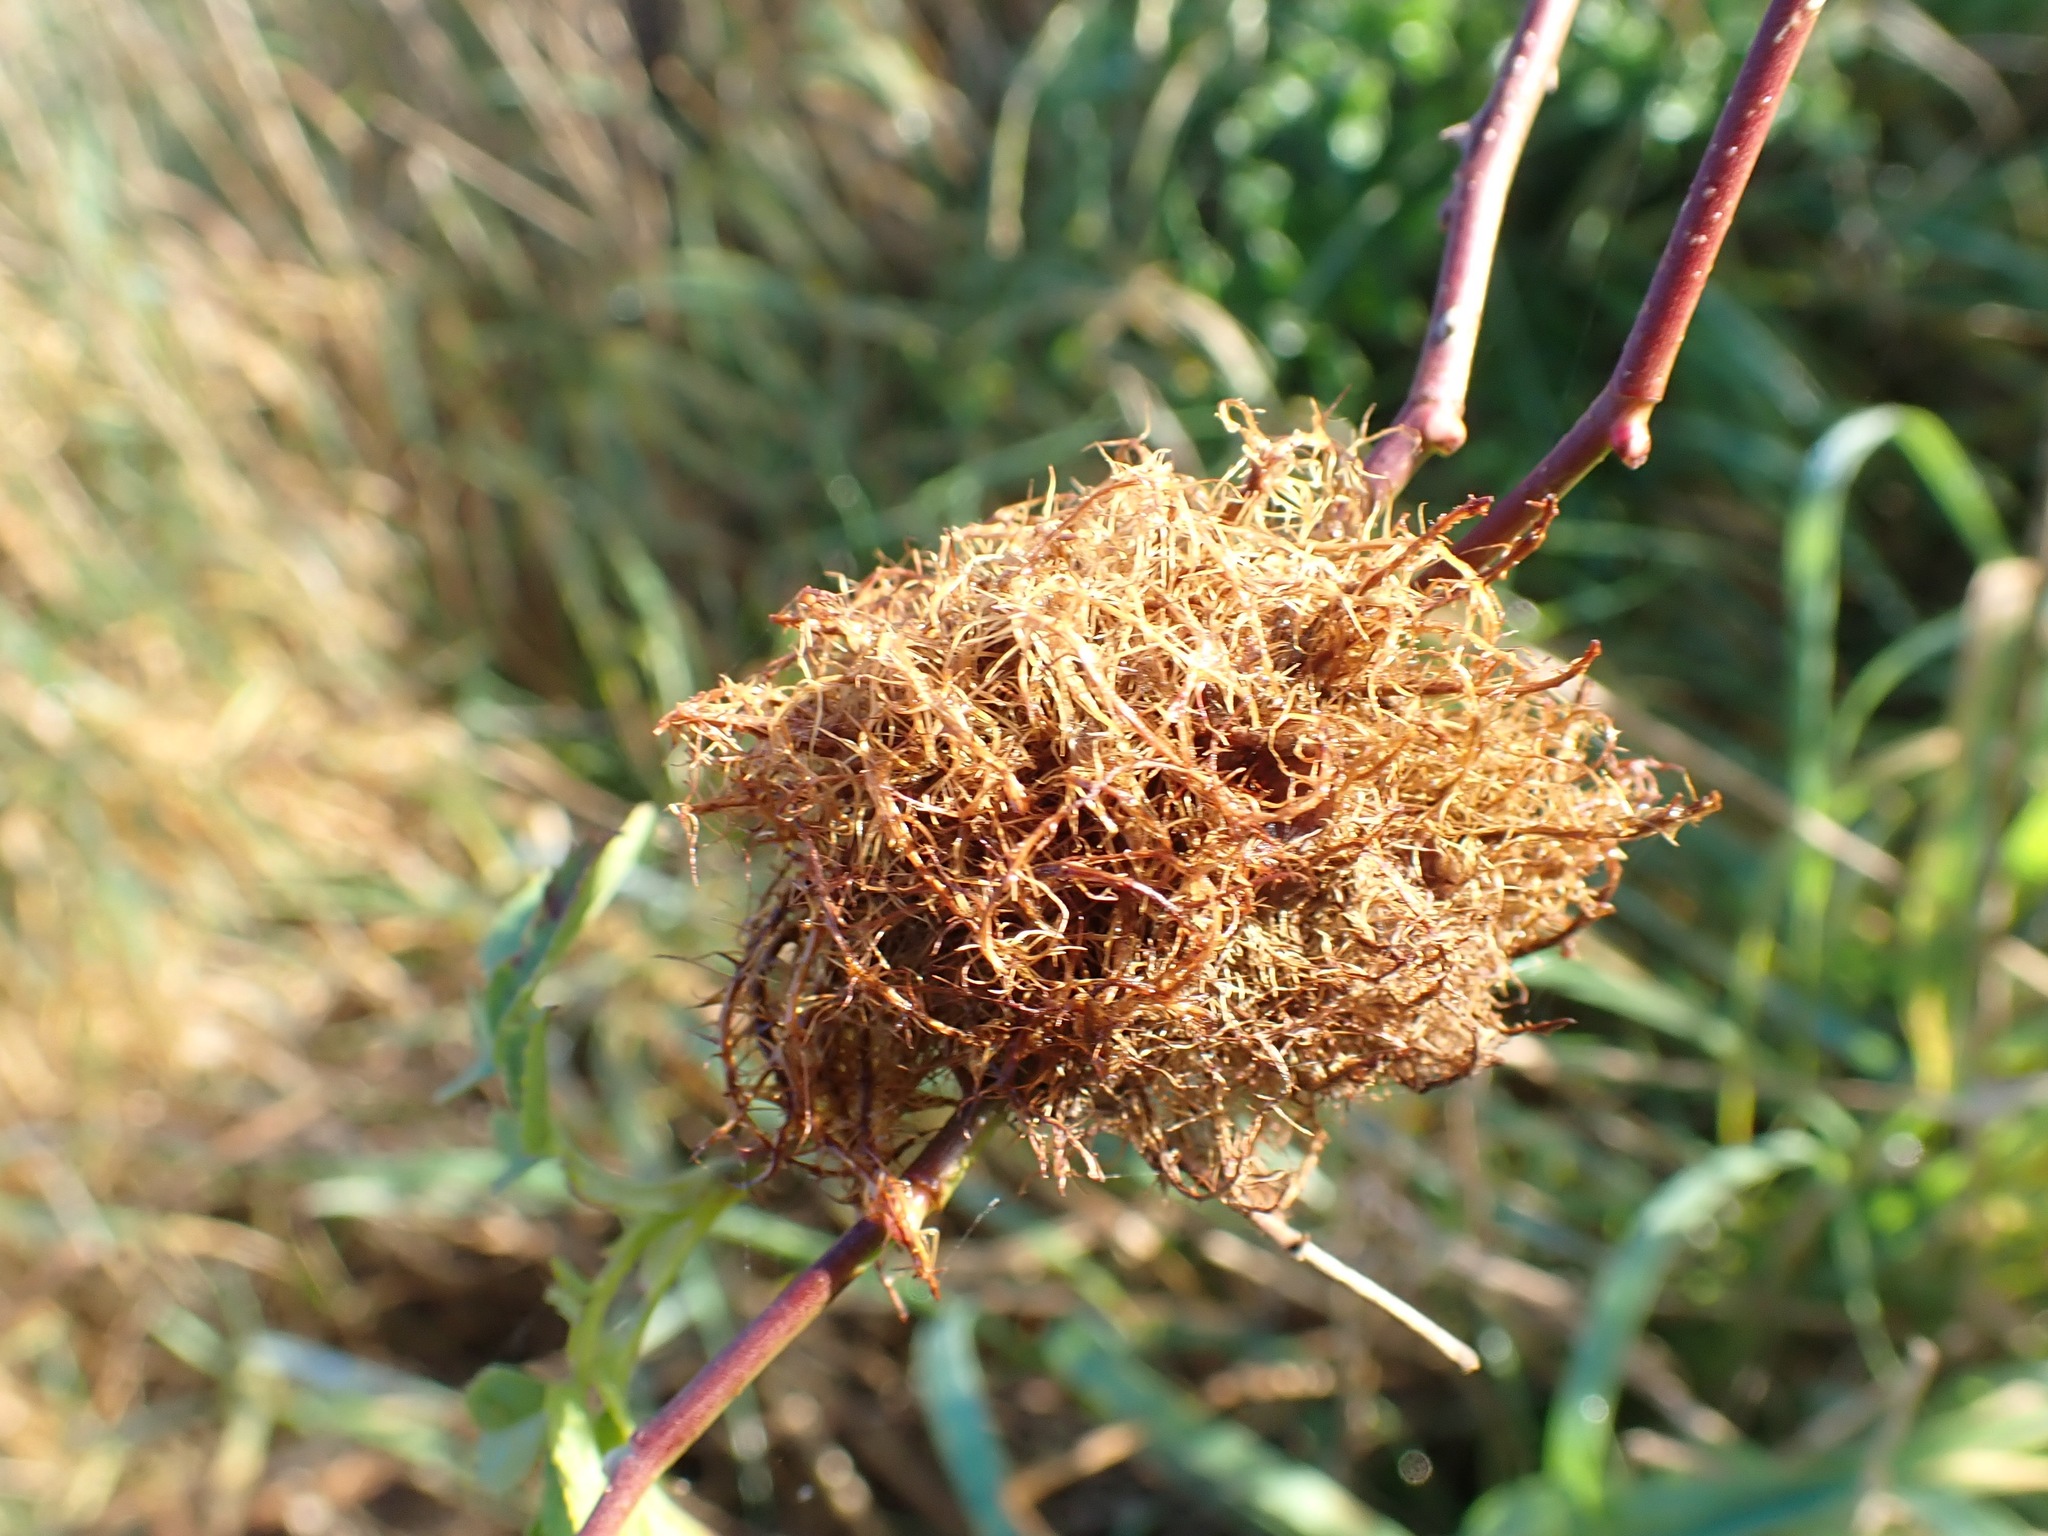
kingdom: Animalia
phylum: Arthropoda
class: Insecta
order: Hymenoptera
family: Cynipidae
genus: Diplolepis
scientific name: Diplolepis rosae
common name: Bedeguar gall
